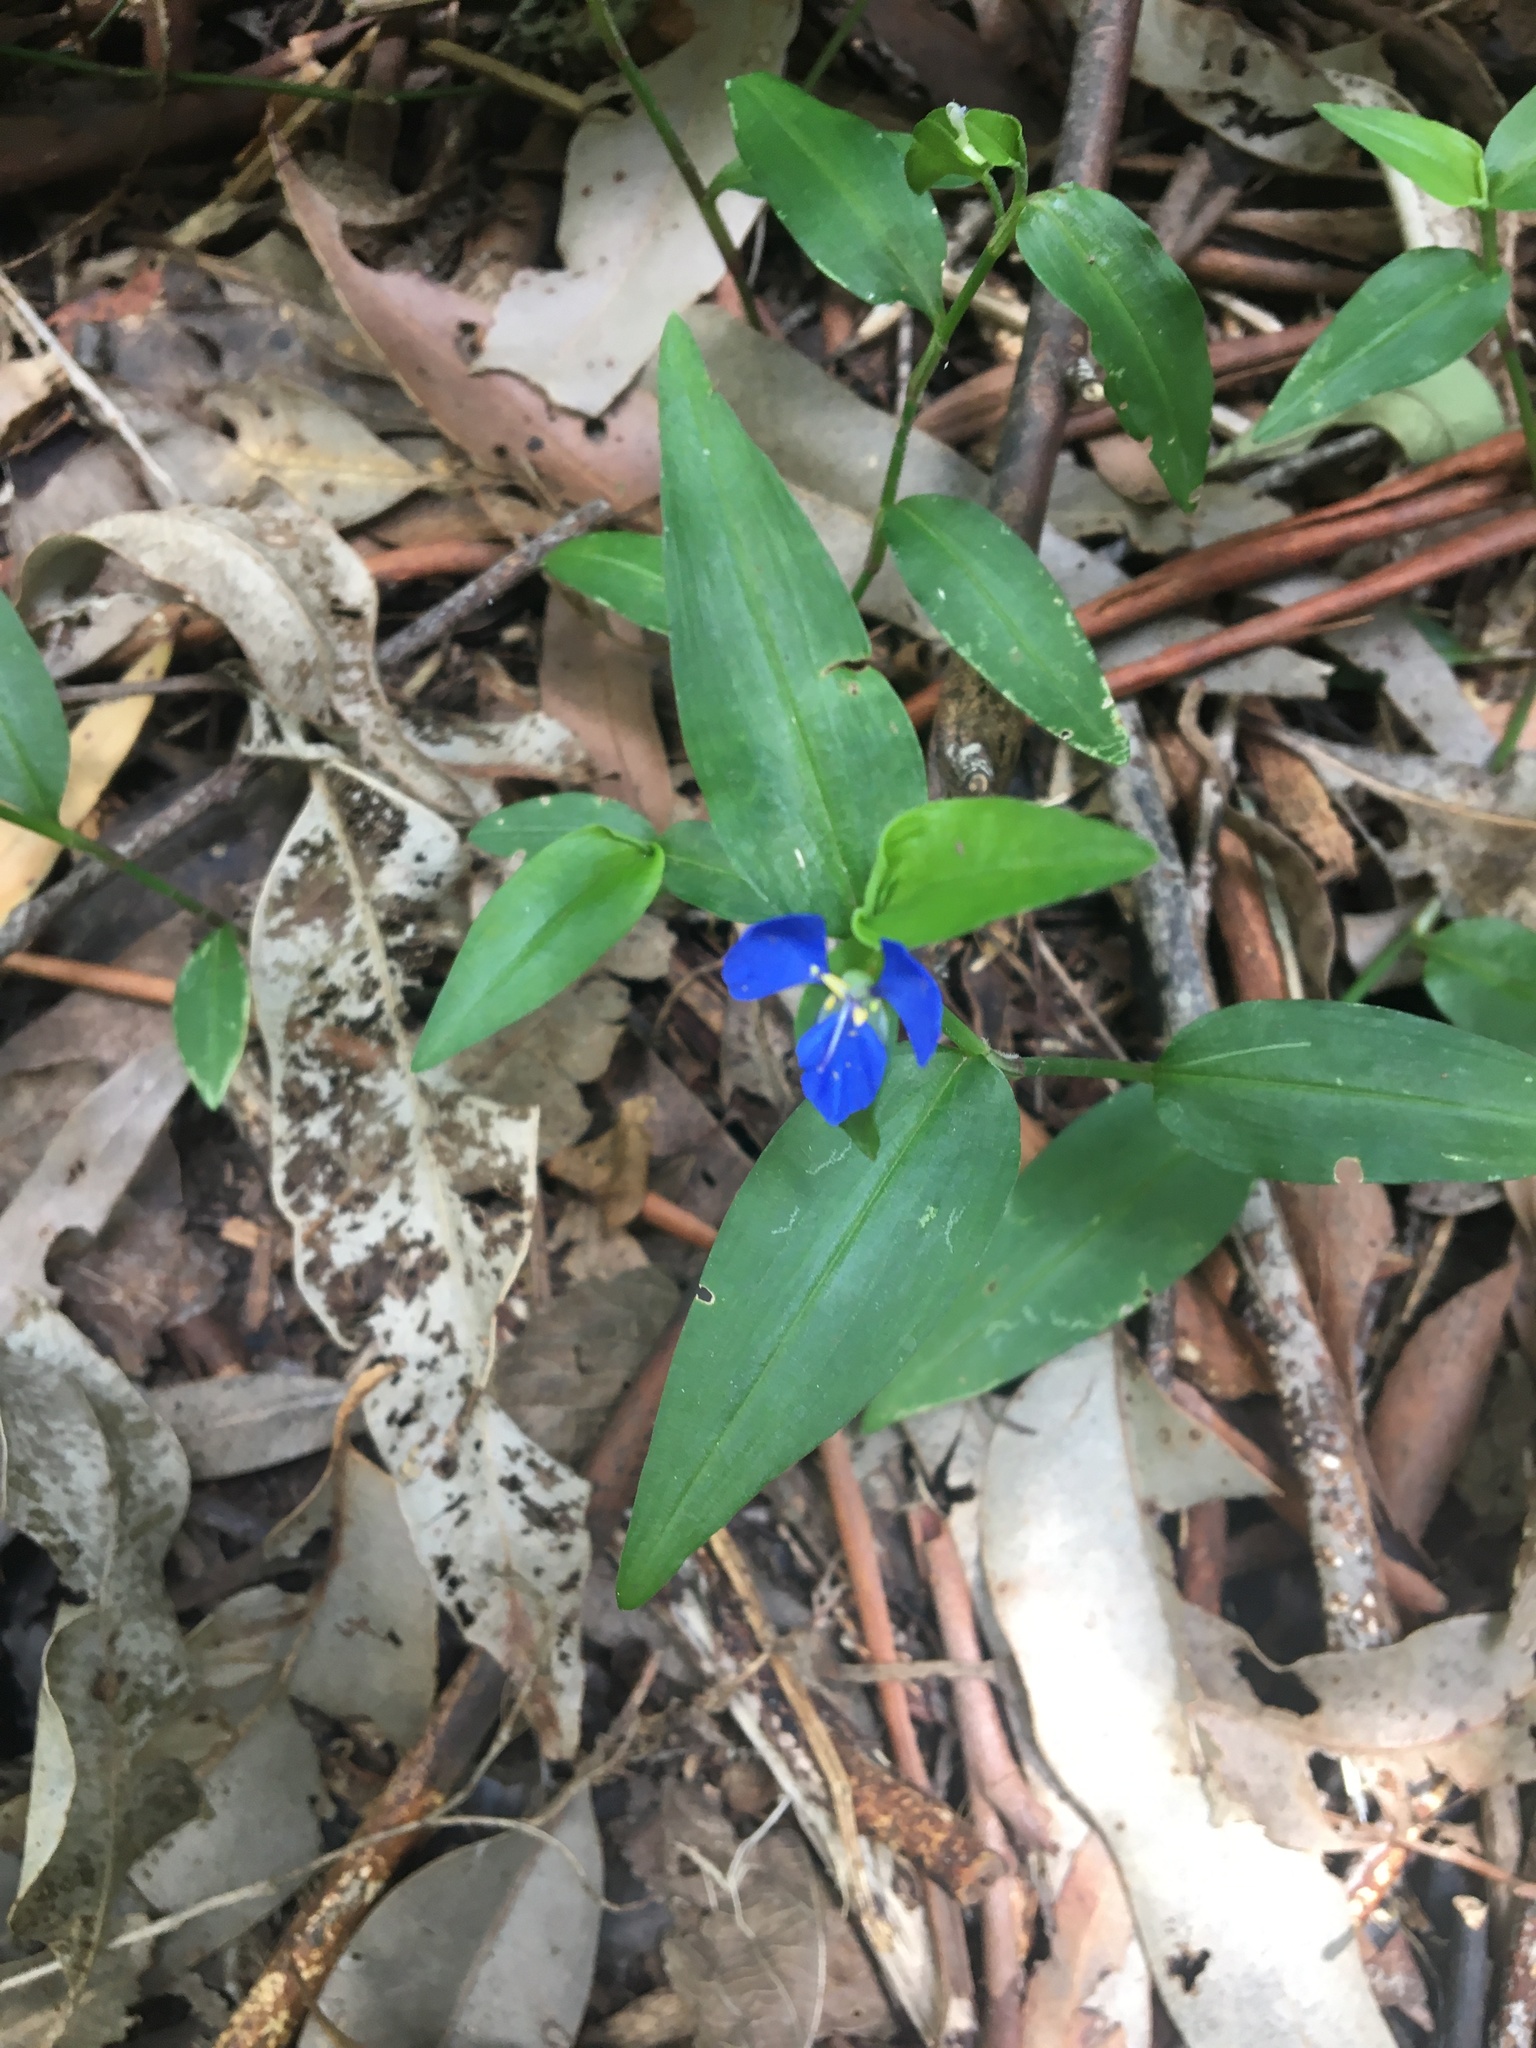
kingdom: Plantae
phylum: Tracheophyta
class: Liliopsida
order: Commelinales
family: Commelinaceae
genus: Commelina
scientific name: Commelina cyanea
